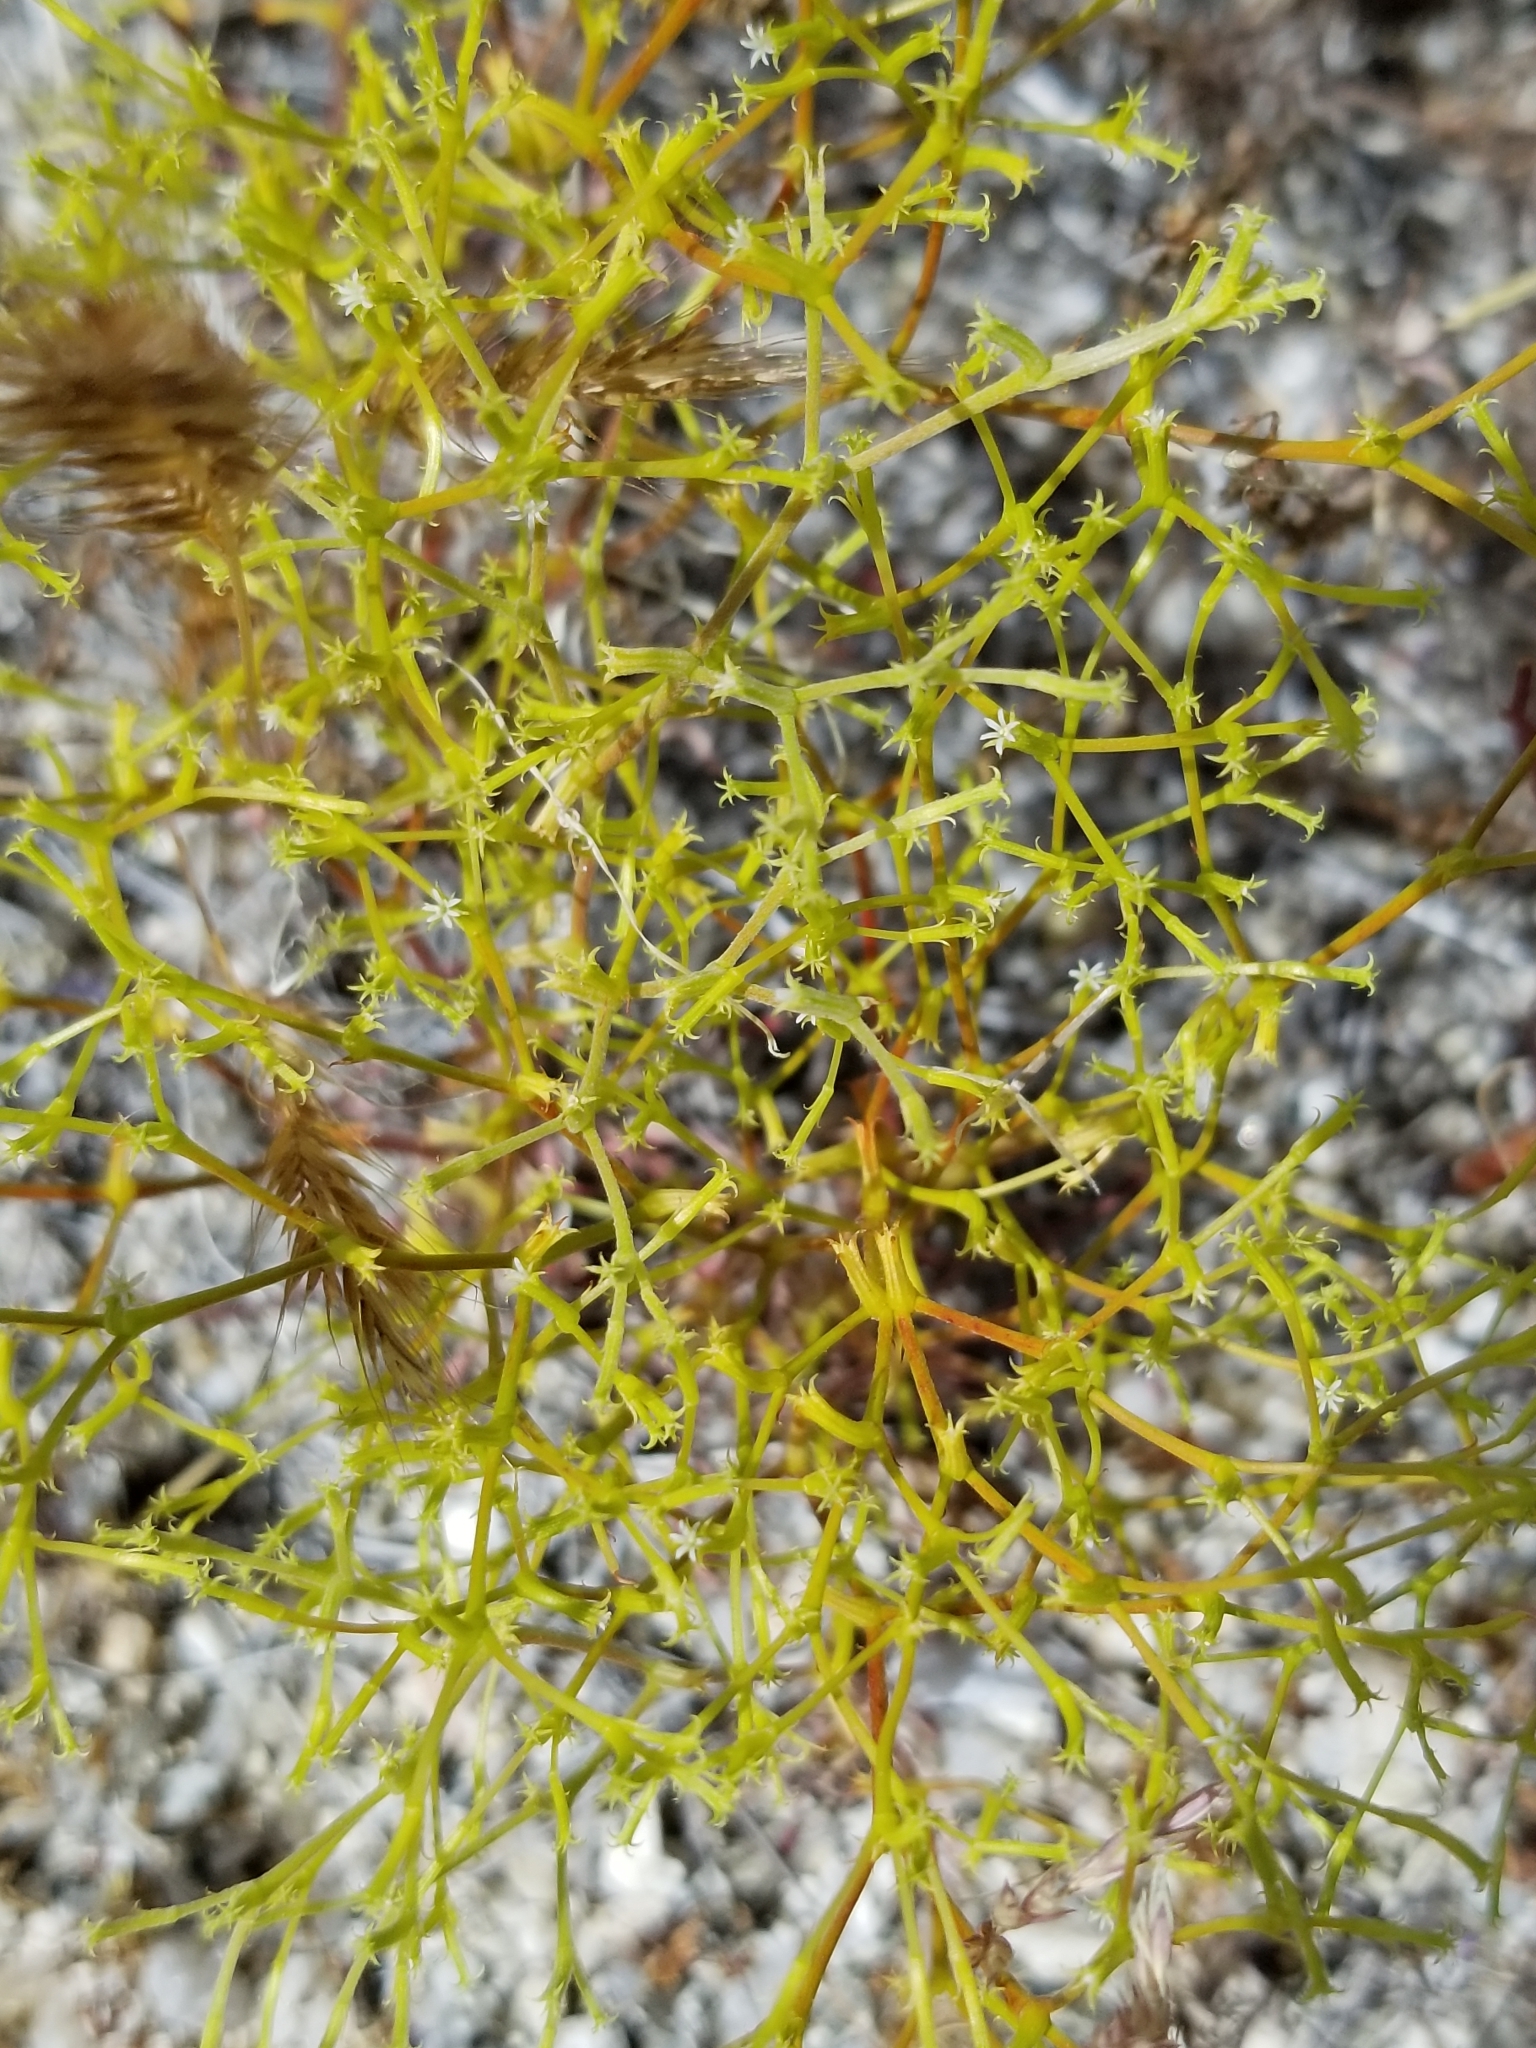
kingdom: Plantae
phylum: Tracheophyta
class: Magnoliopsida
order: Caryophyllales
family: Polygonaceae
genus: Chorizanthe
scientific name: Chorizanthe brevicornu
